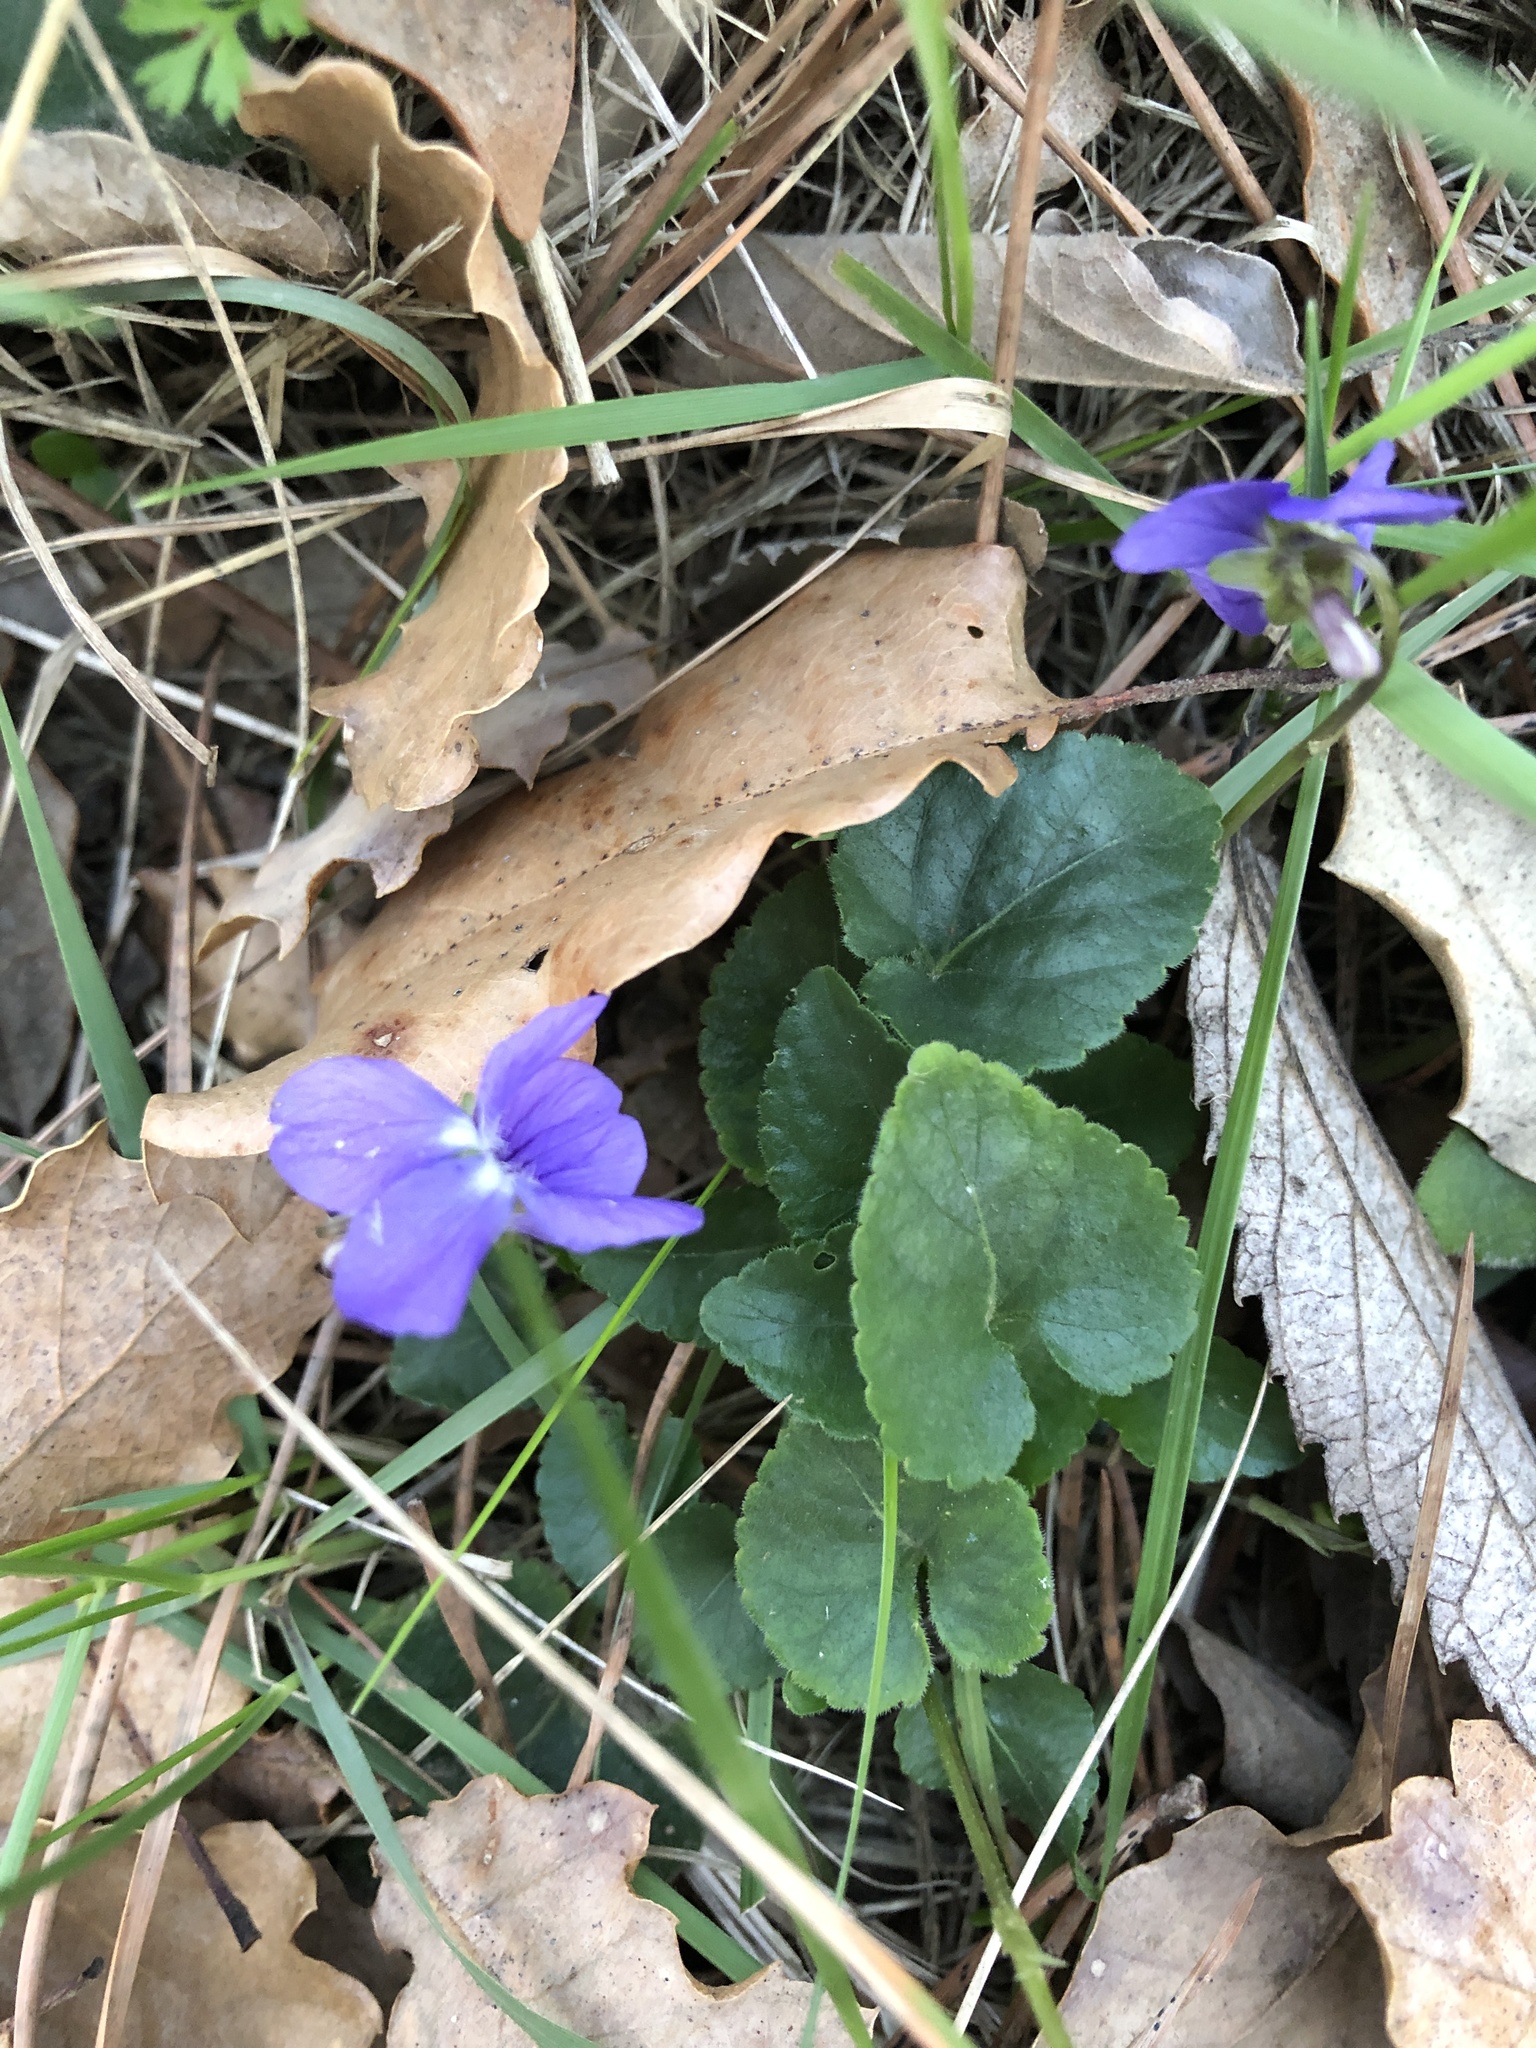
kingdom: Plantae
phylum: Tracheophyta
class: Magnoliopsida
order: Malpighiales
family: Violaceae
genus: Viola
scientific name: Viola alba
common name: White violet
